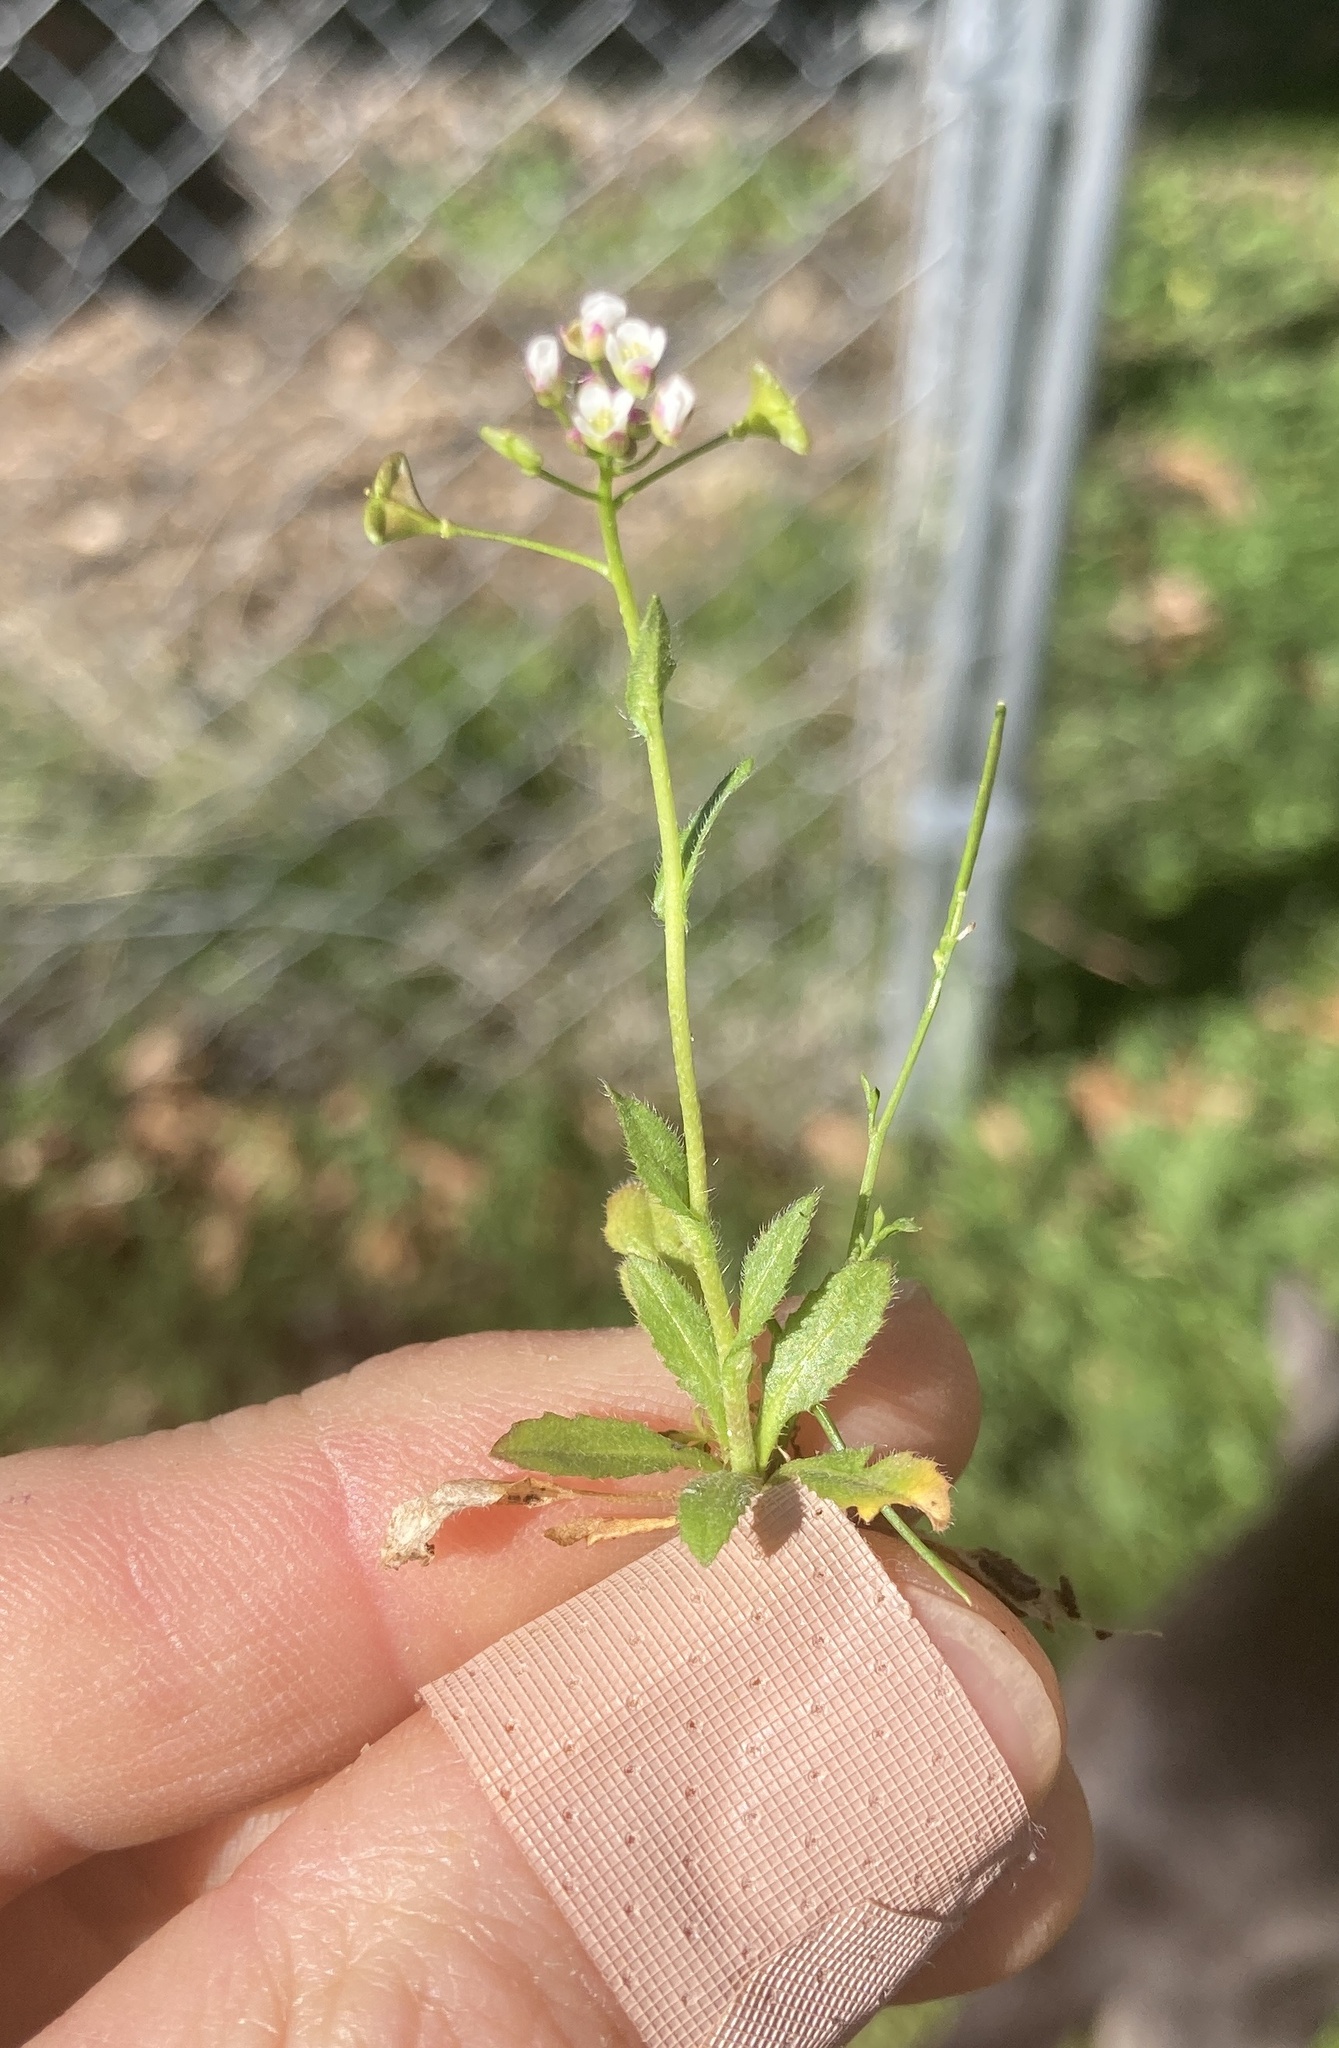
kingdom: Plantae
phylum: Tracheophyta
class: Magnoliopsida
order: Brassicales
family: Brassicaceae
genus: Capsella
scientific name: Capsella bursa-pastoris
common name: Shepherd's purse
